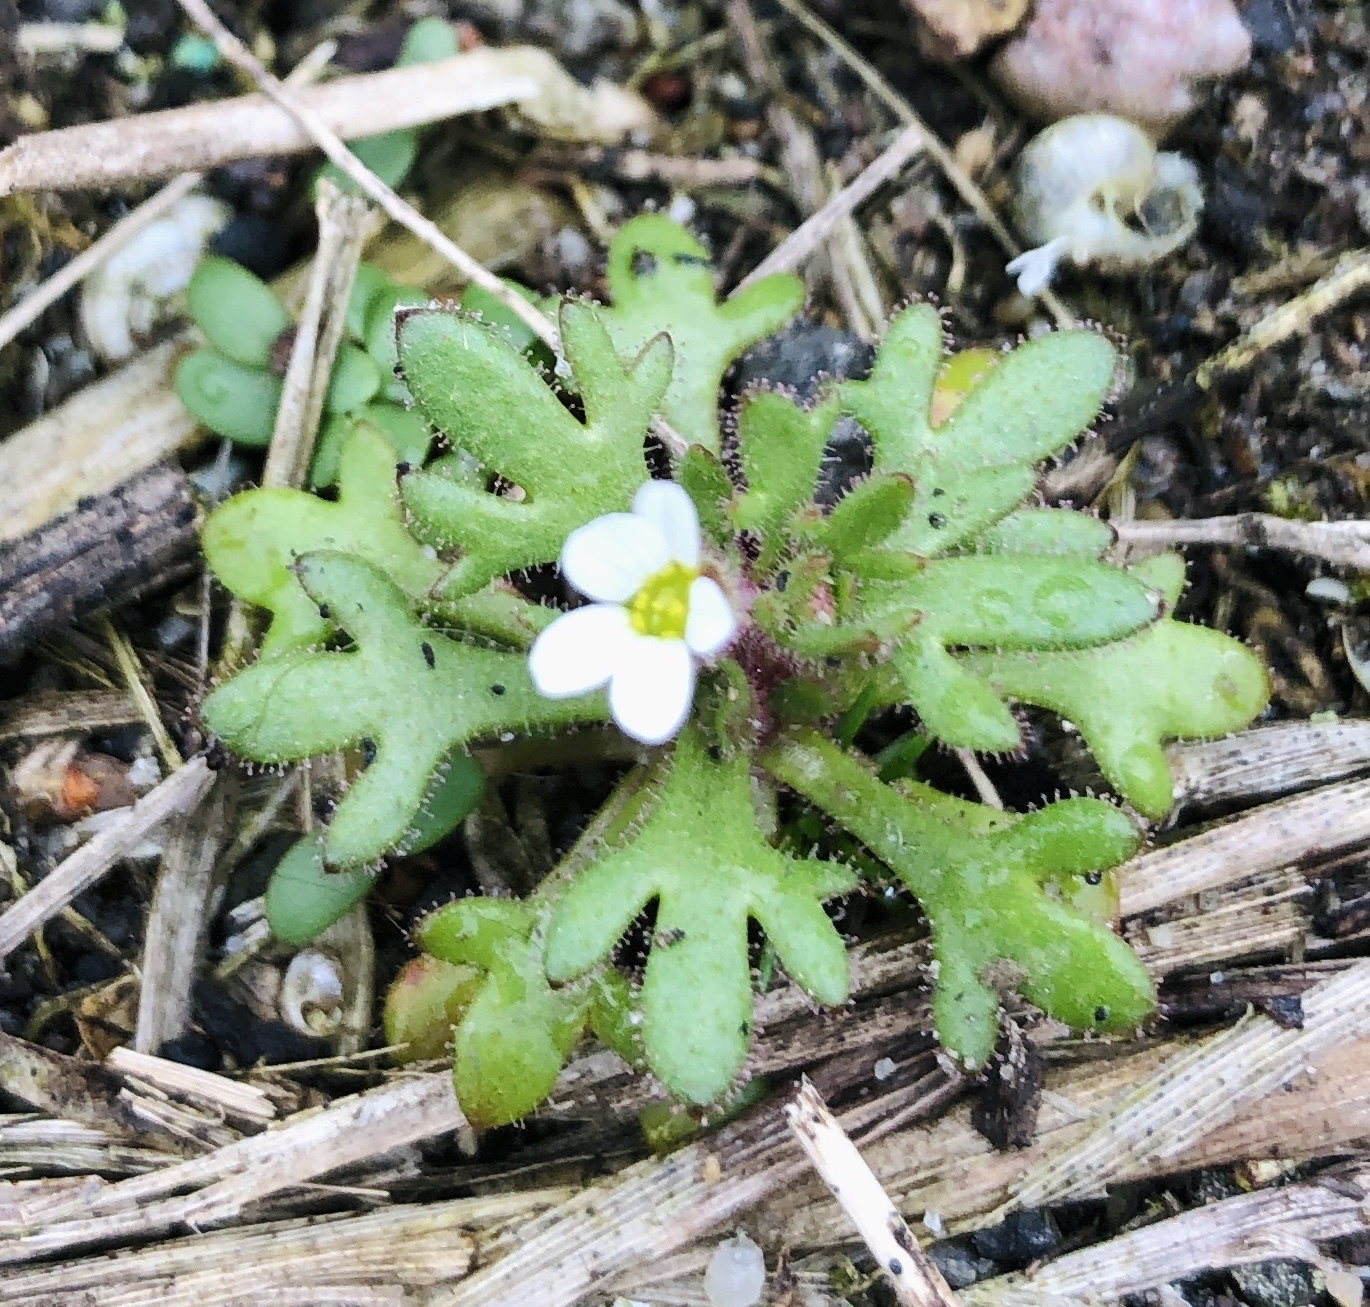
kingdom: Plantae
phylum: Tracheophyta
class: Magnoliopsida
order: Saxifragales
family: Saxifragaceae
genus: Saxifraga
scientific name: Saxifraga tridactylites
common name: Rue-leaved saxifrage
